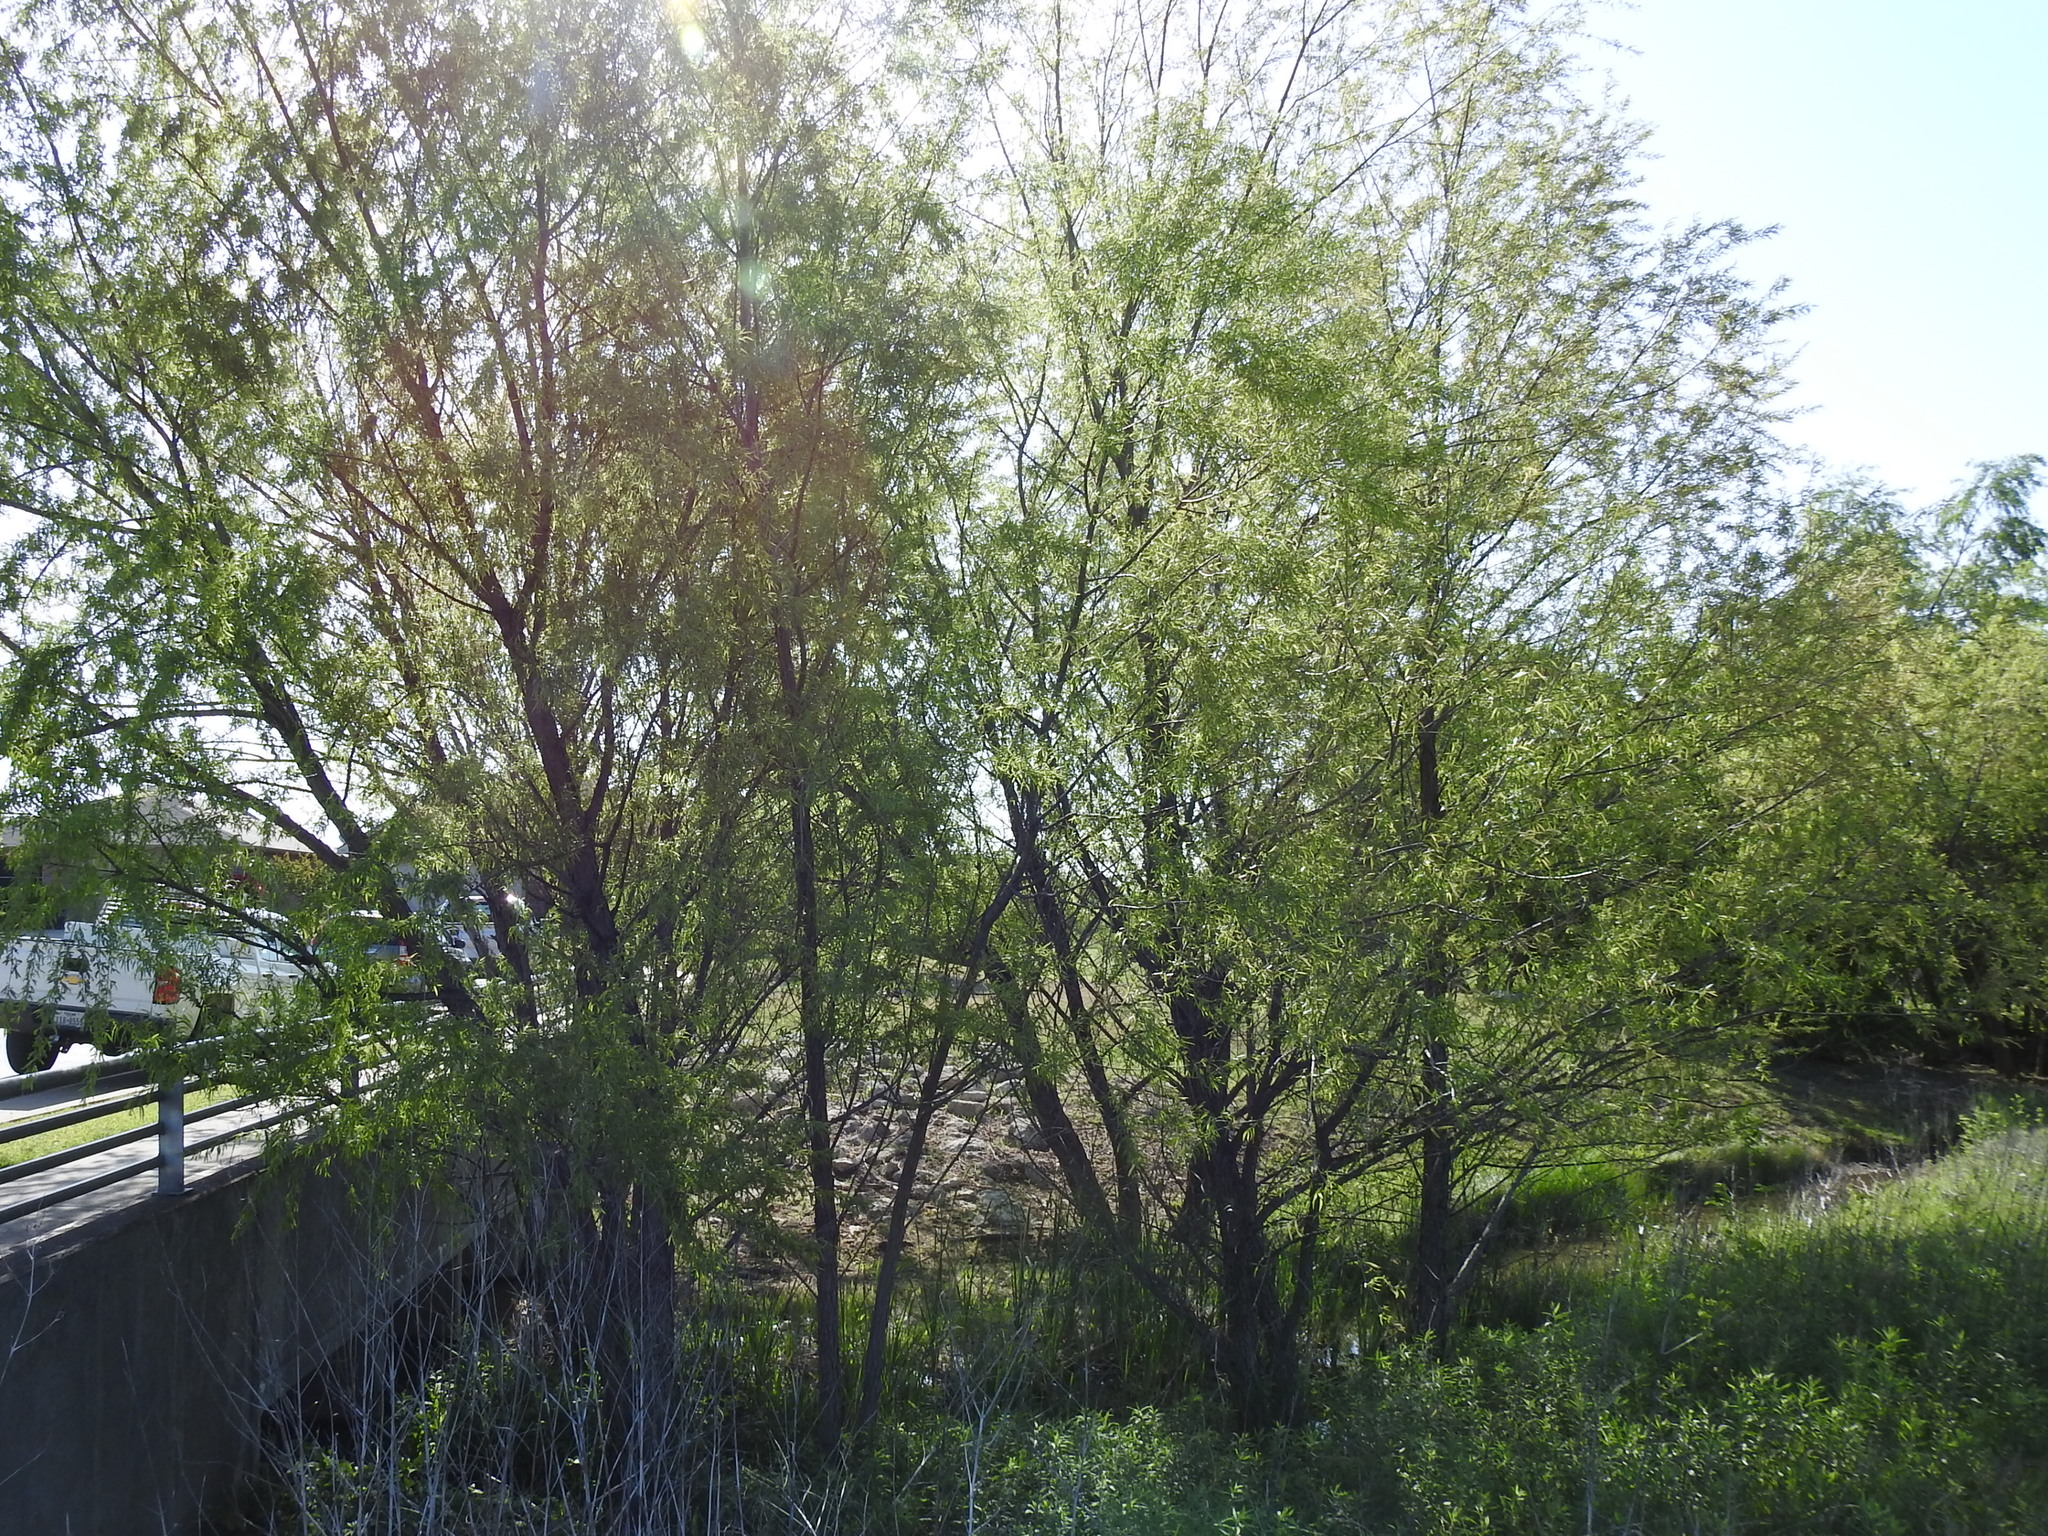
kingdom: Plantae
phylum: Tracheophyta
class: Magnoliopsida
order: Malpighiales
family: Salicaceae
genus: Salix
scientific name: Salix nigra
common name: Black willow
